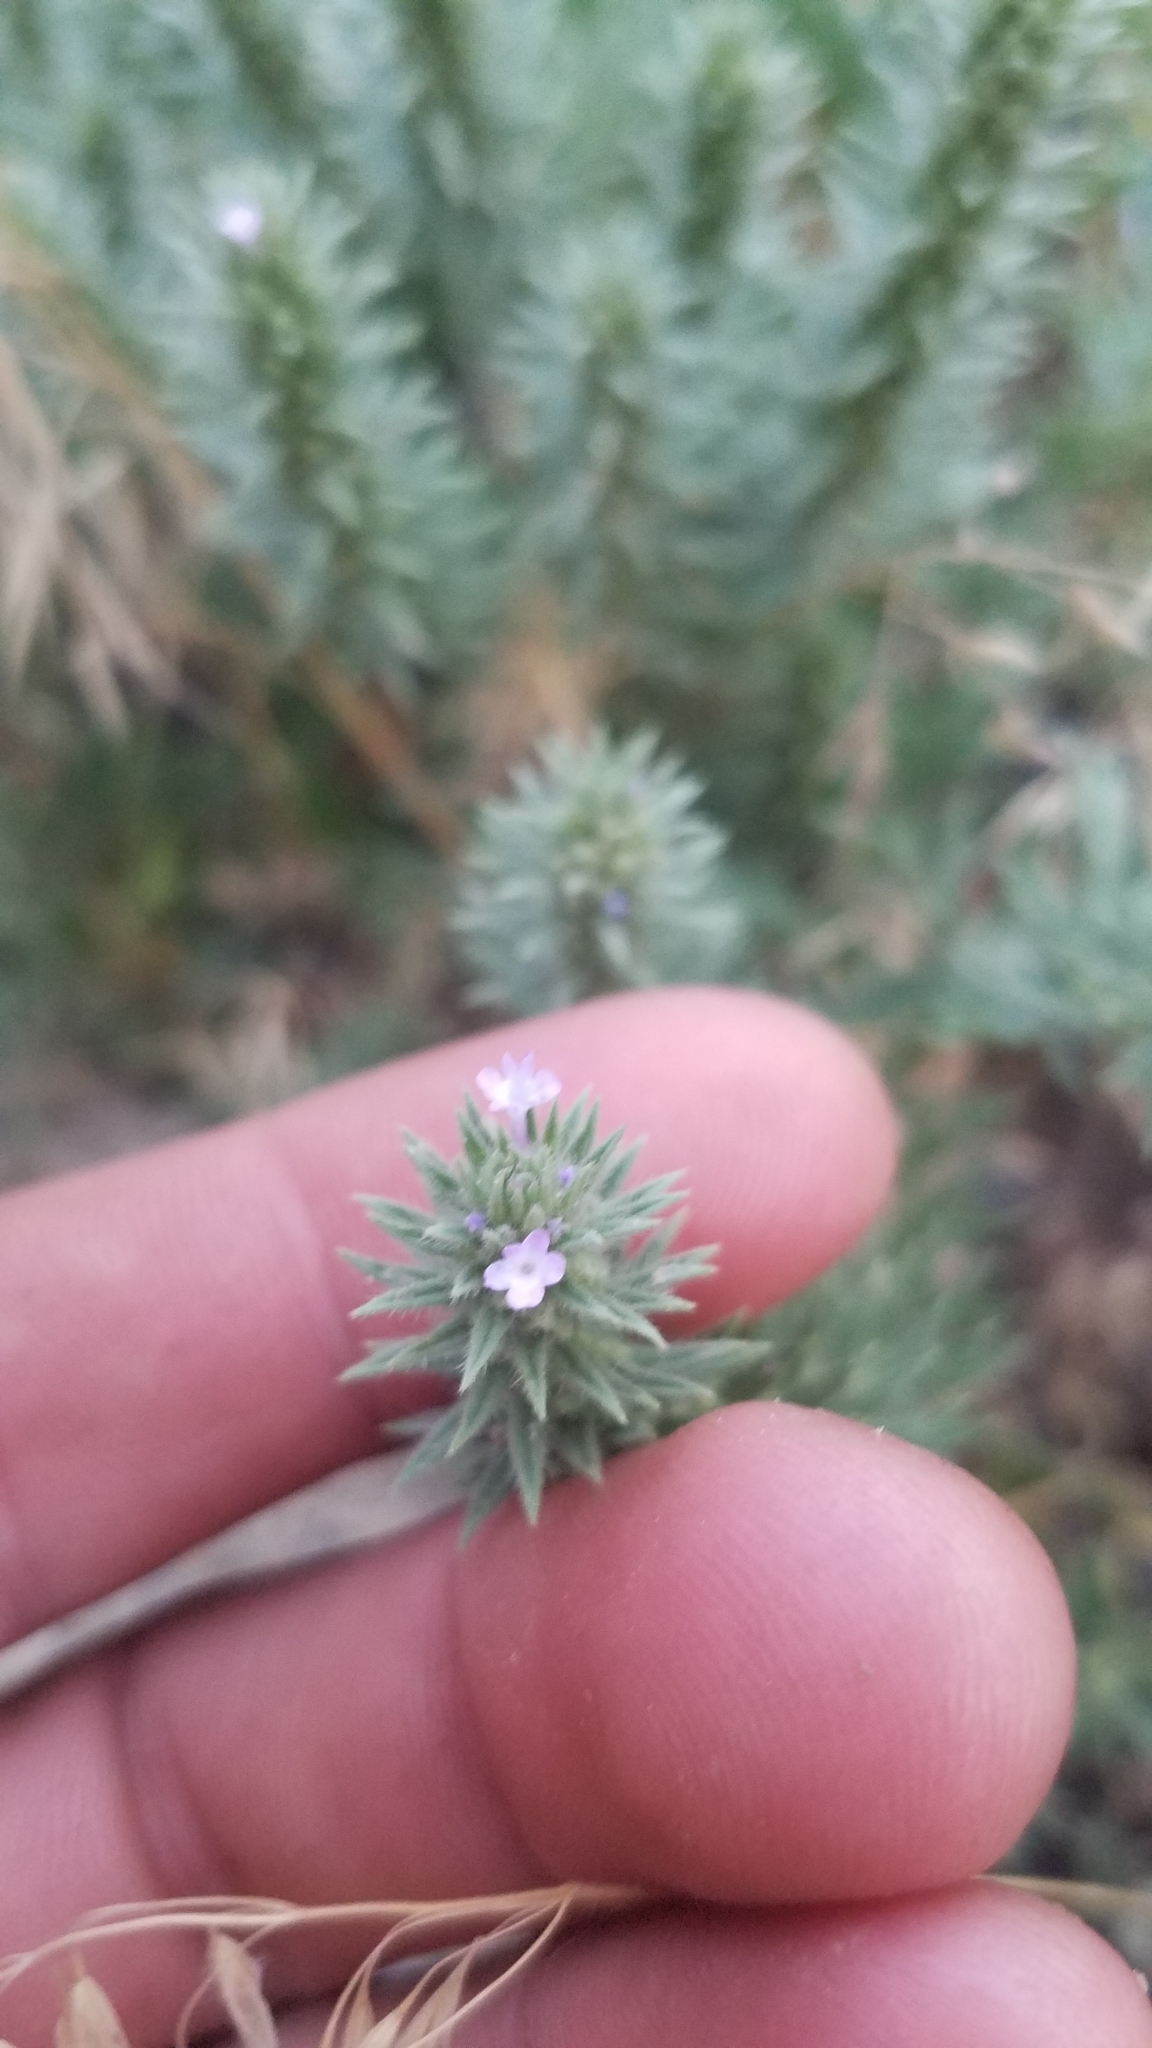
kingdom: Plantae
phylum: Tracheophyta
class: Magnoliopsida
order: Lamiales
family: Verbenaceae
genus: Verbena
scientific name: Verbena bracteata
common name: Bracted vervain
